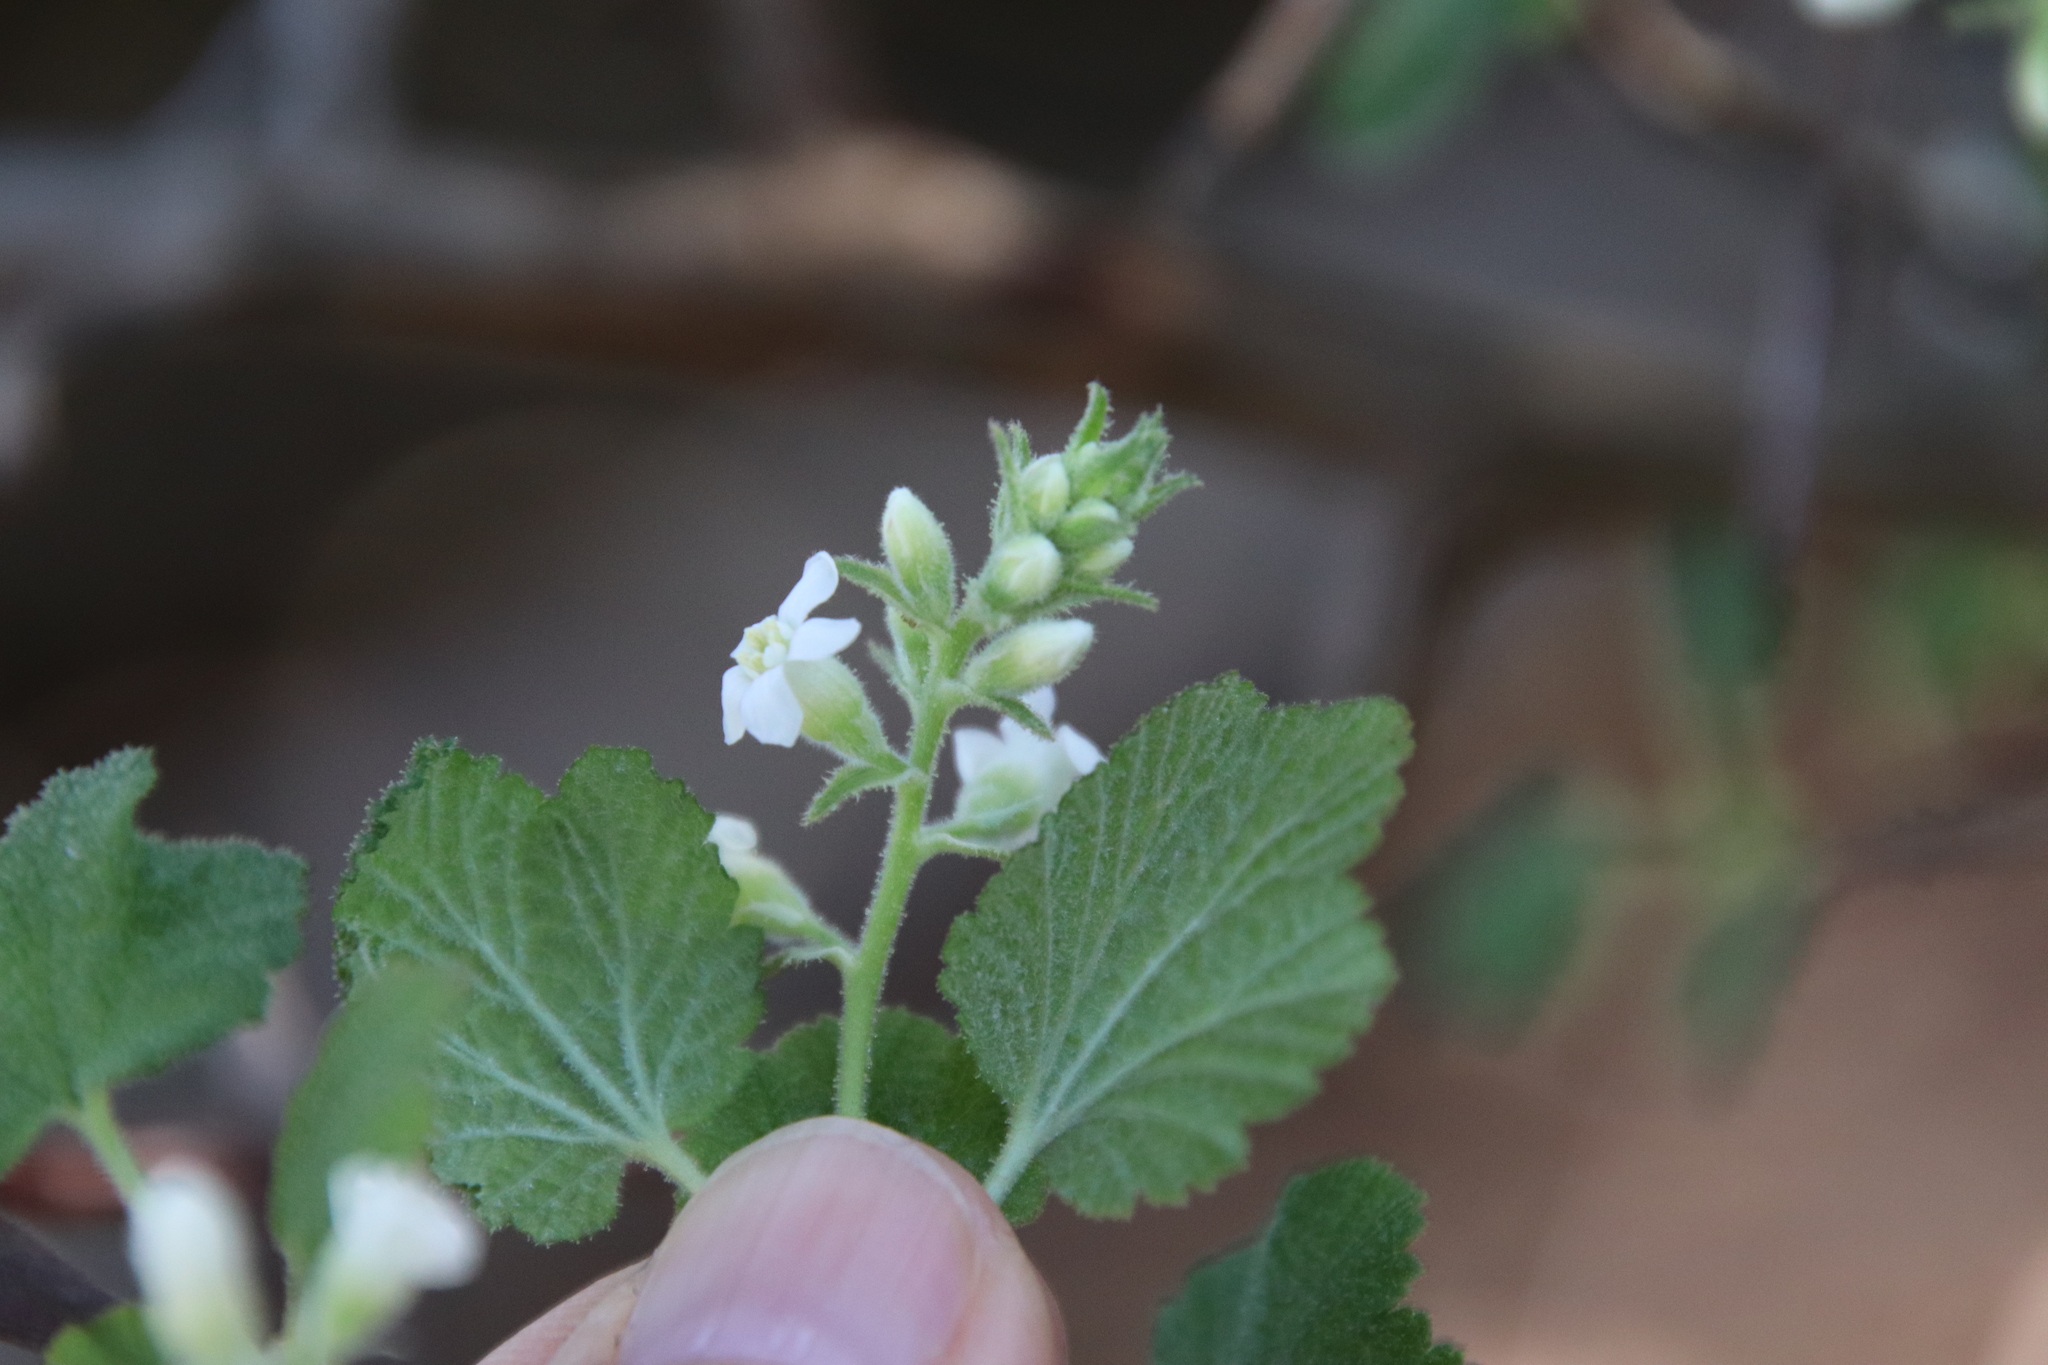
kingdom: Plantae
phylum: Tracheophyta
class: Magnoliopsida
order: Saxifragales
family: Grossulariaceae
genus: Ribes
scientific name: Ribes indecorum
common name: White-flower currant
